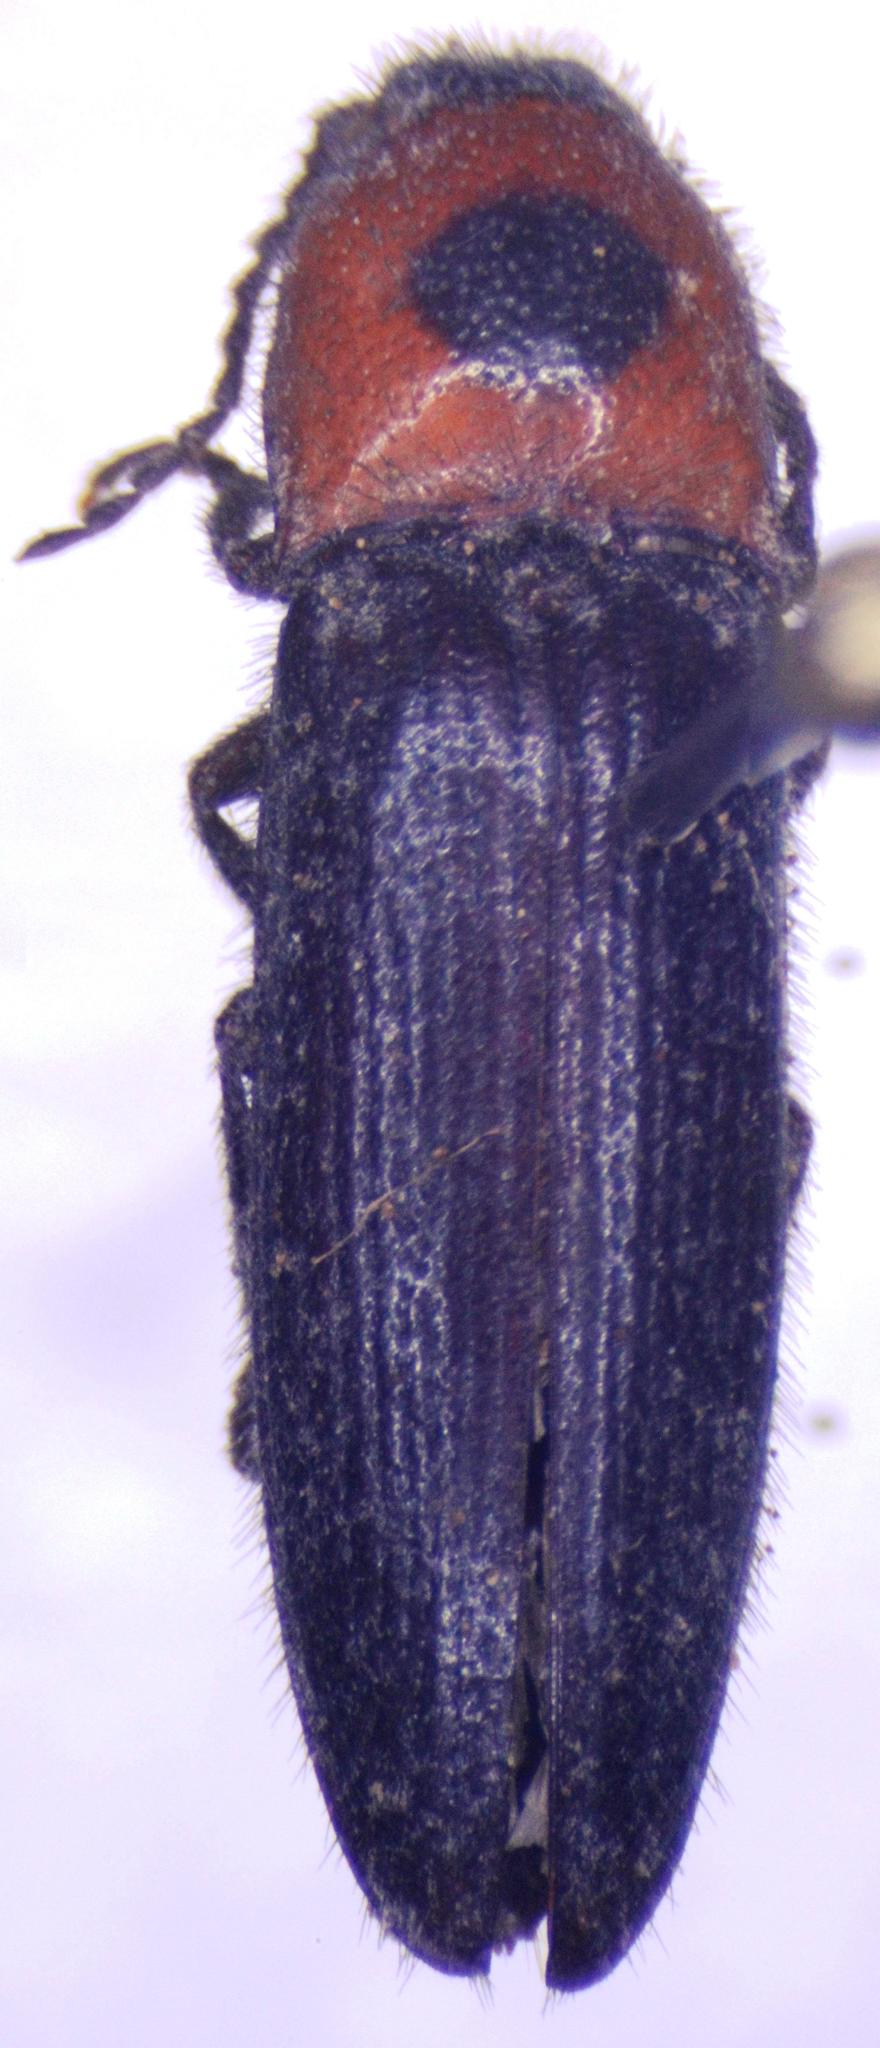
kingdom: Animalia
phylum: Arthropoda
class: Insecta
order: Coleoptera
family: Elateridae
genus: Anoplischius
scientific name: Anoplischius
